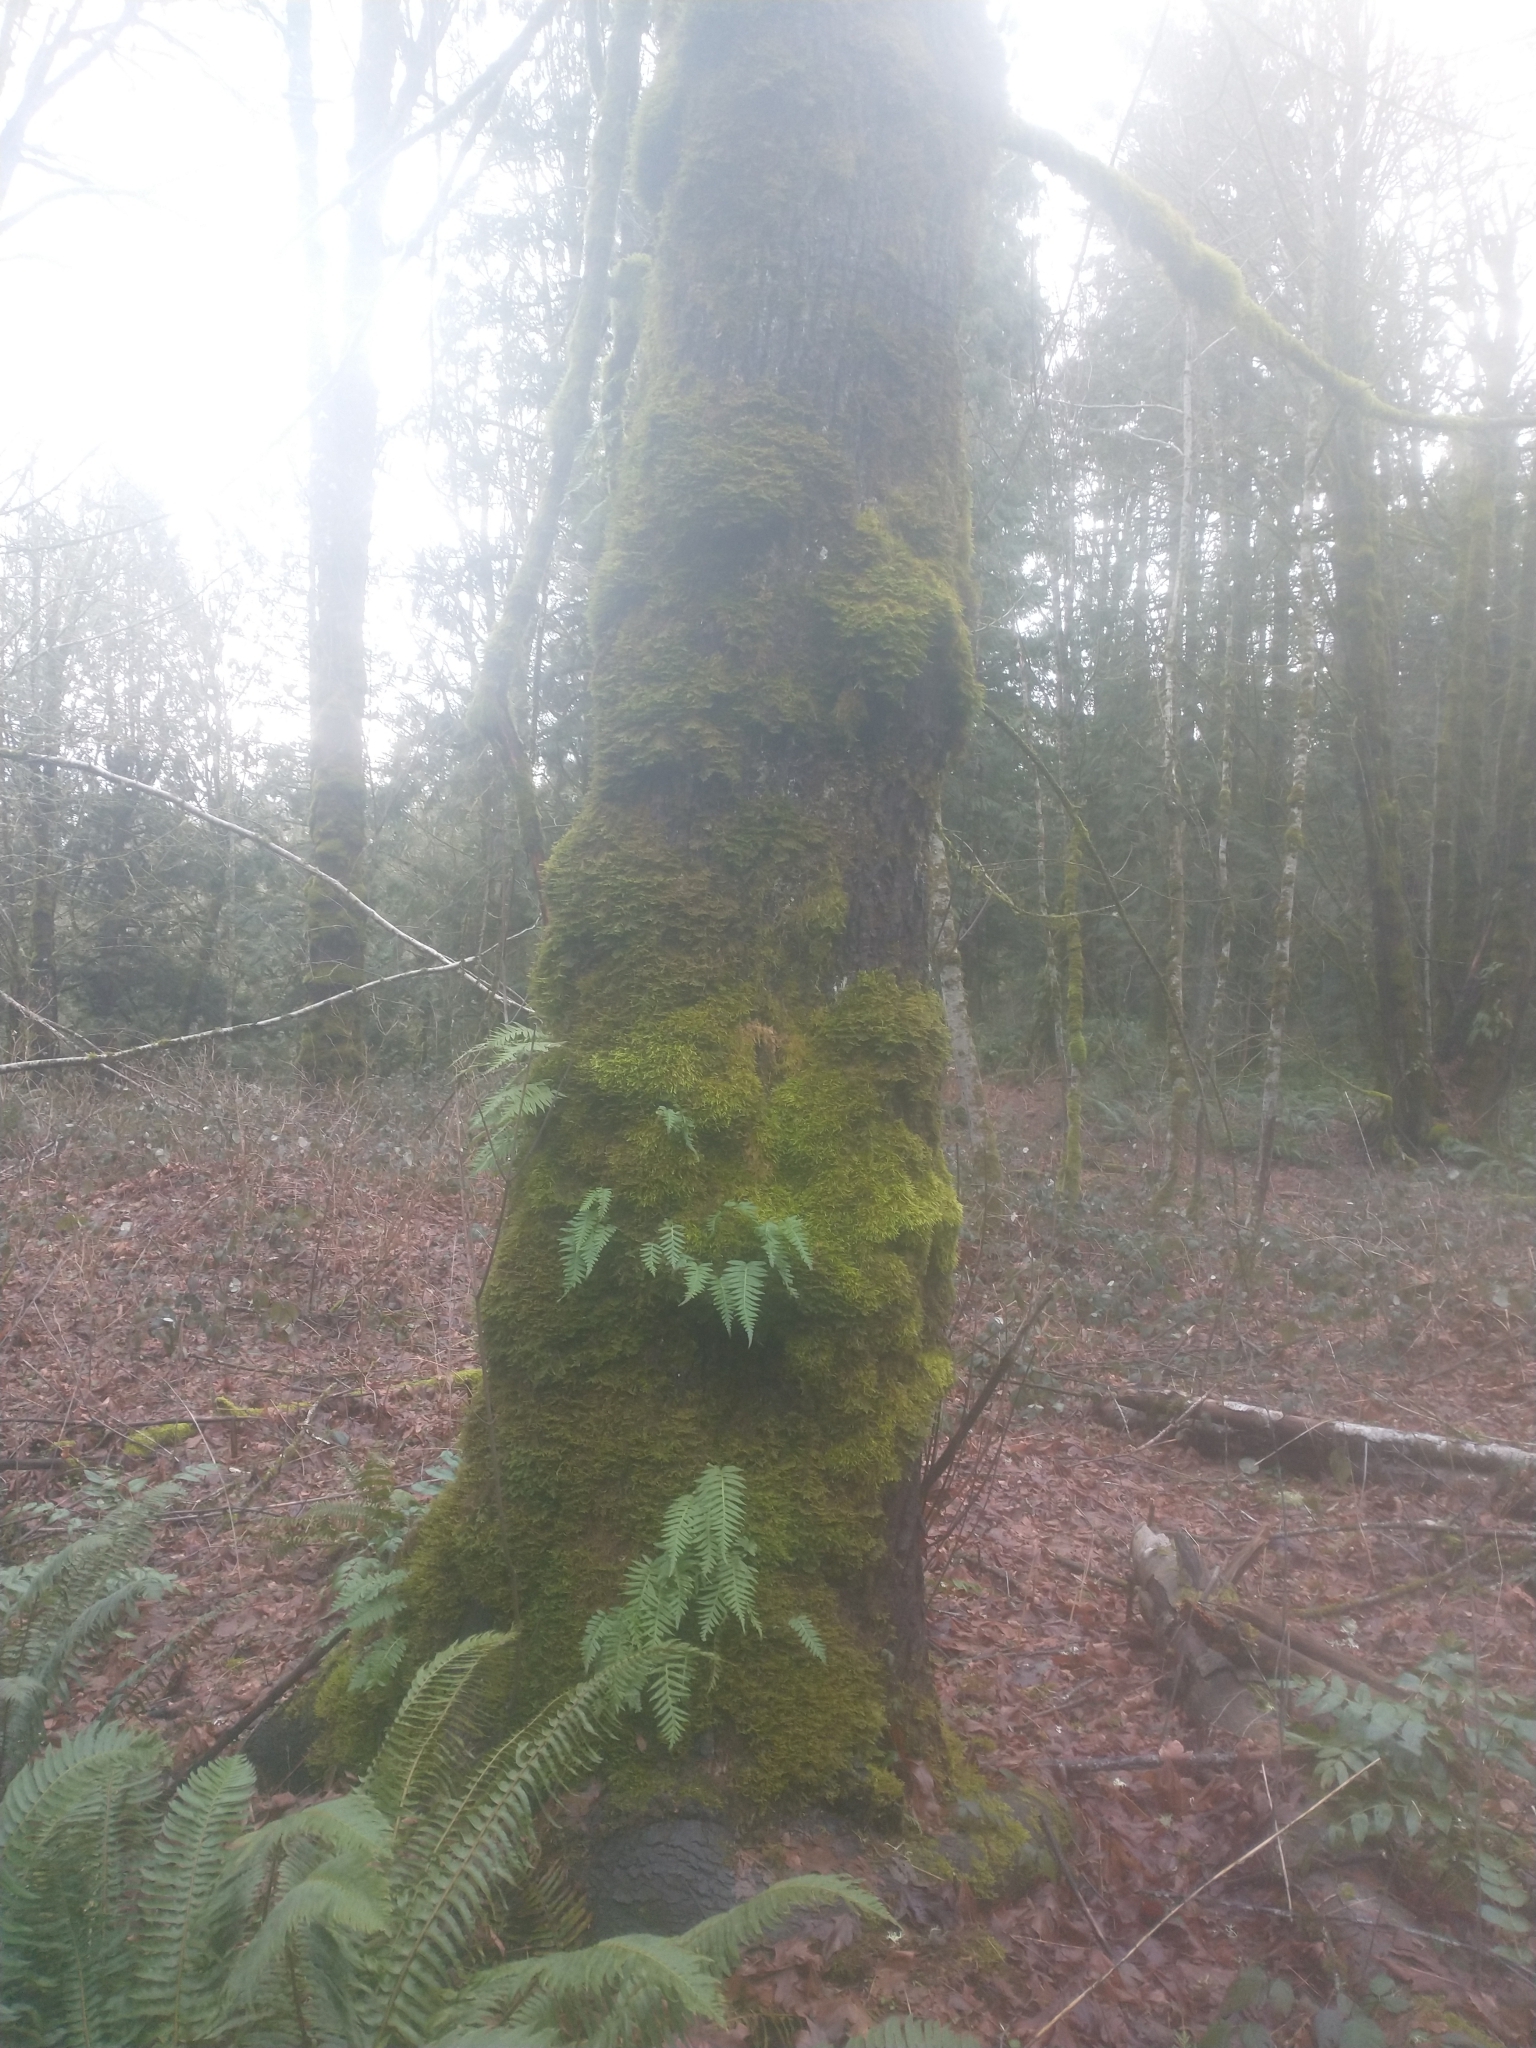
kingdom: Plantae
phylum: Tracheophyta
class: Magnoliopsida
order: Sapindales
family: Sapindaceae
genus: Acer
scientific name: Acer macrophyllum
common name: Oregon maple
